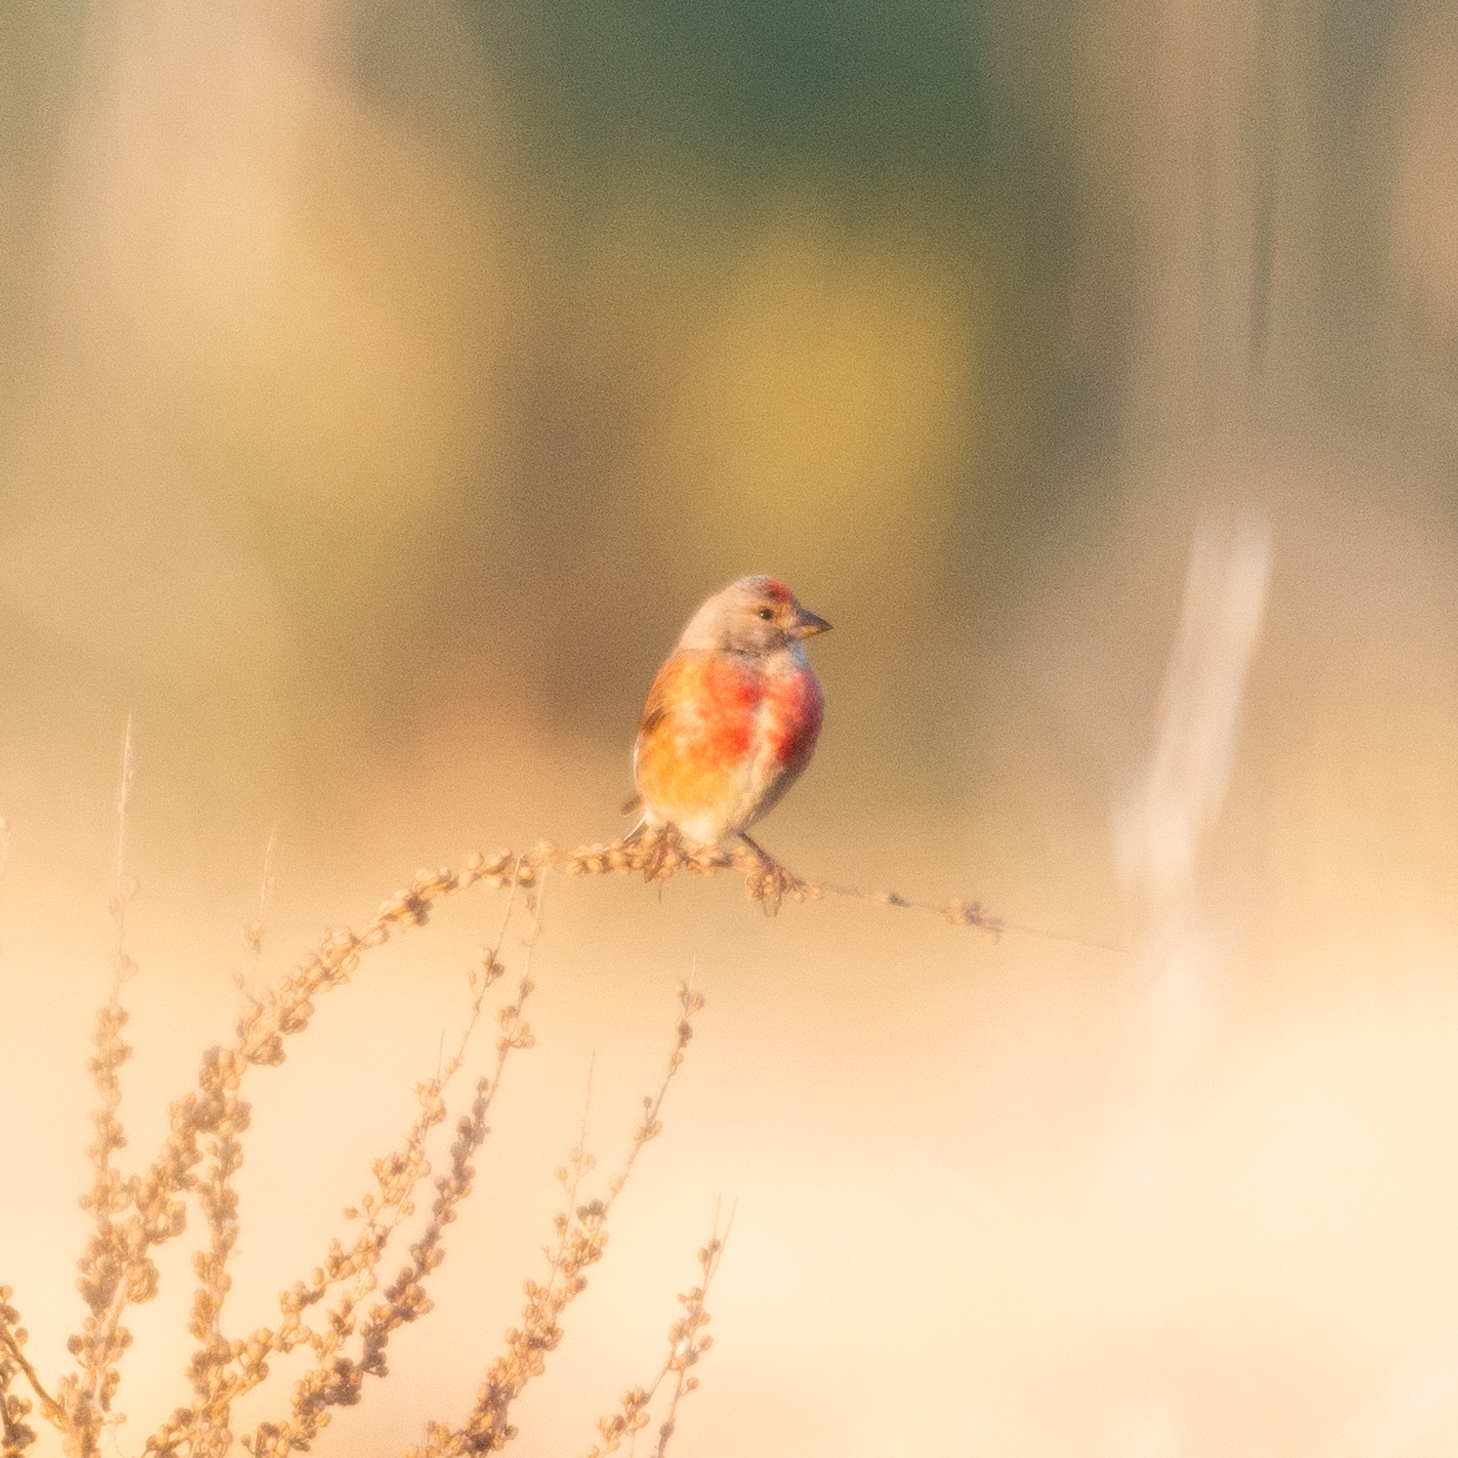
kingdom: Animalia
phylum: Chordata
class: Aves
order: Passeriformes
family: Fringillidae
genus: Linaria
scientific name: Linaria cannabina
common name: Common linnet
